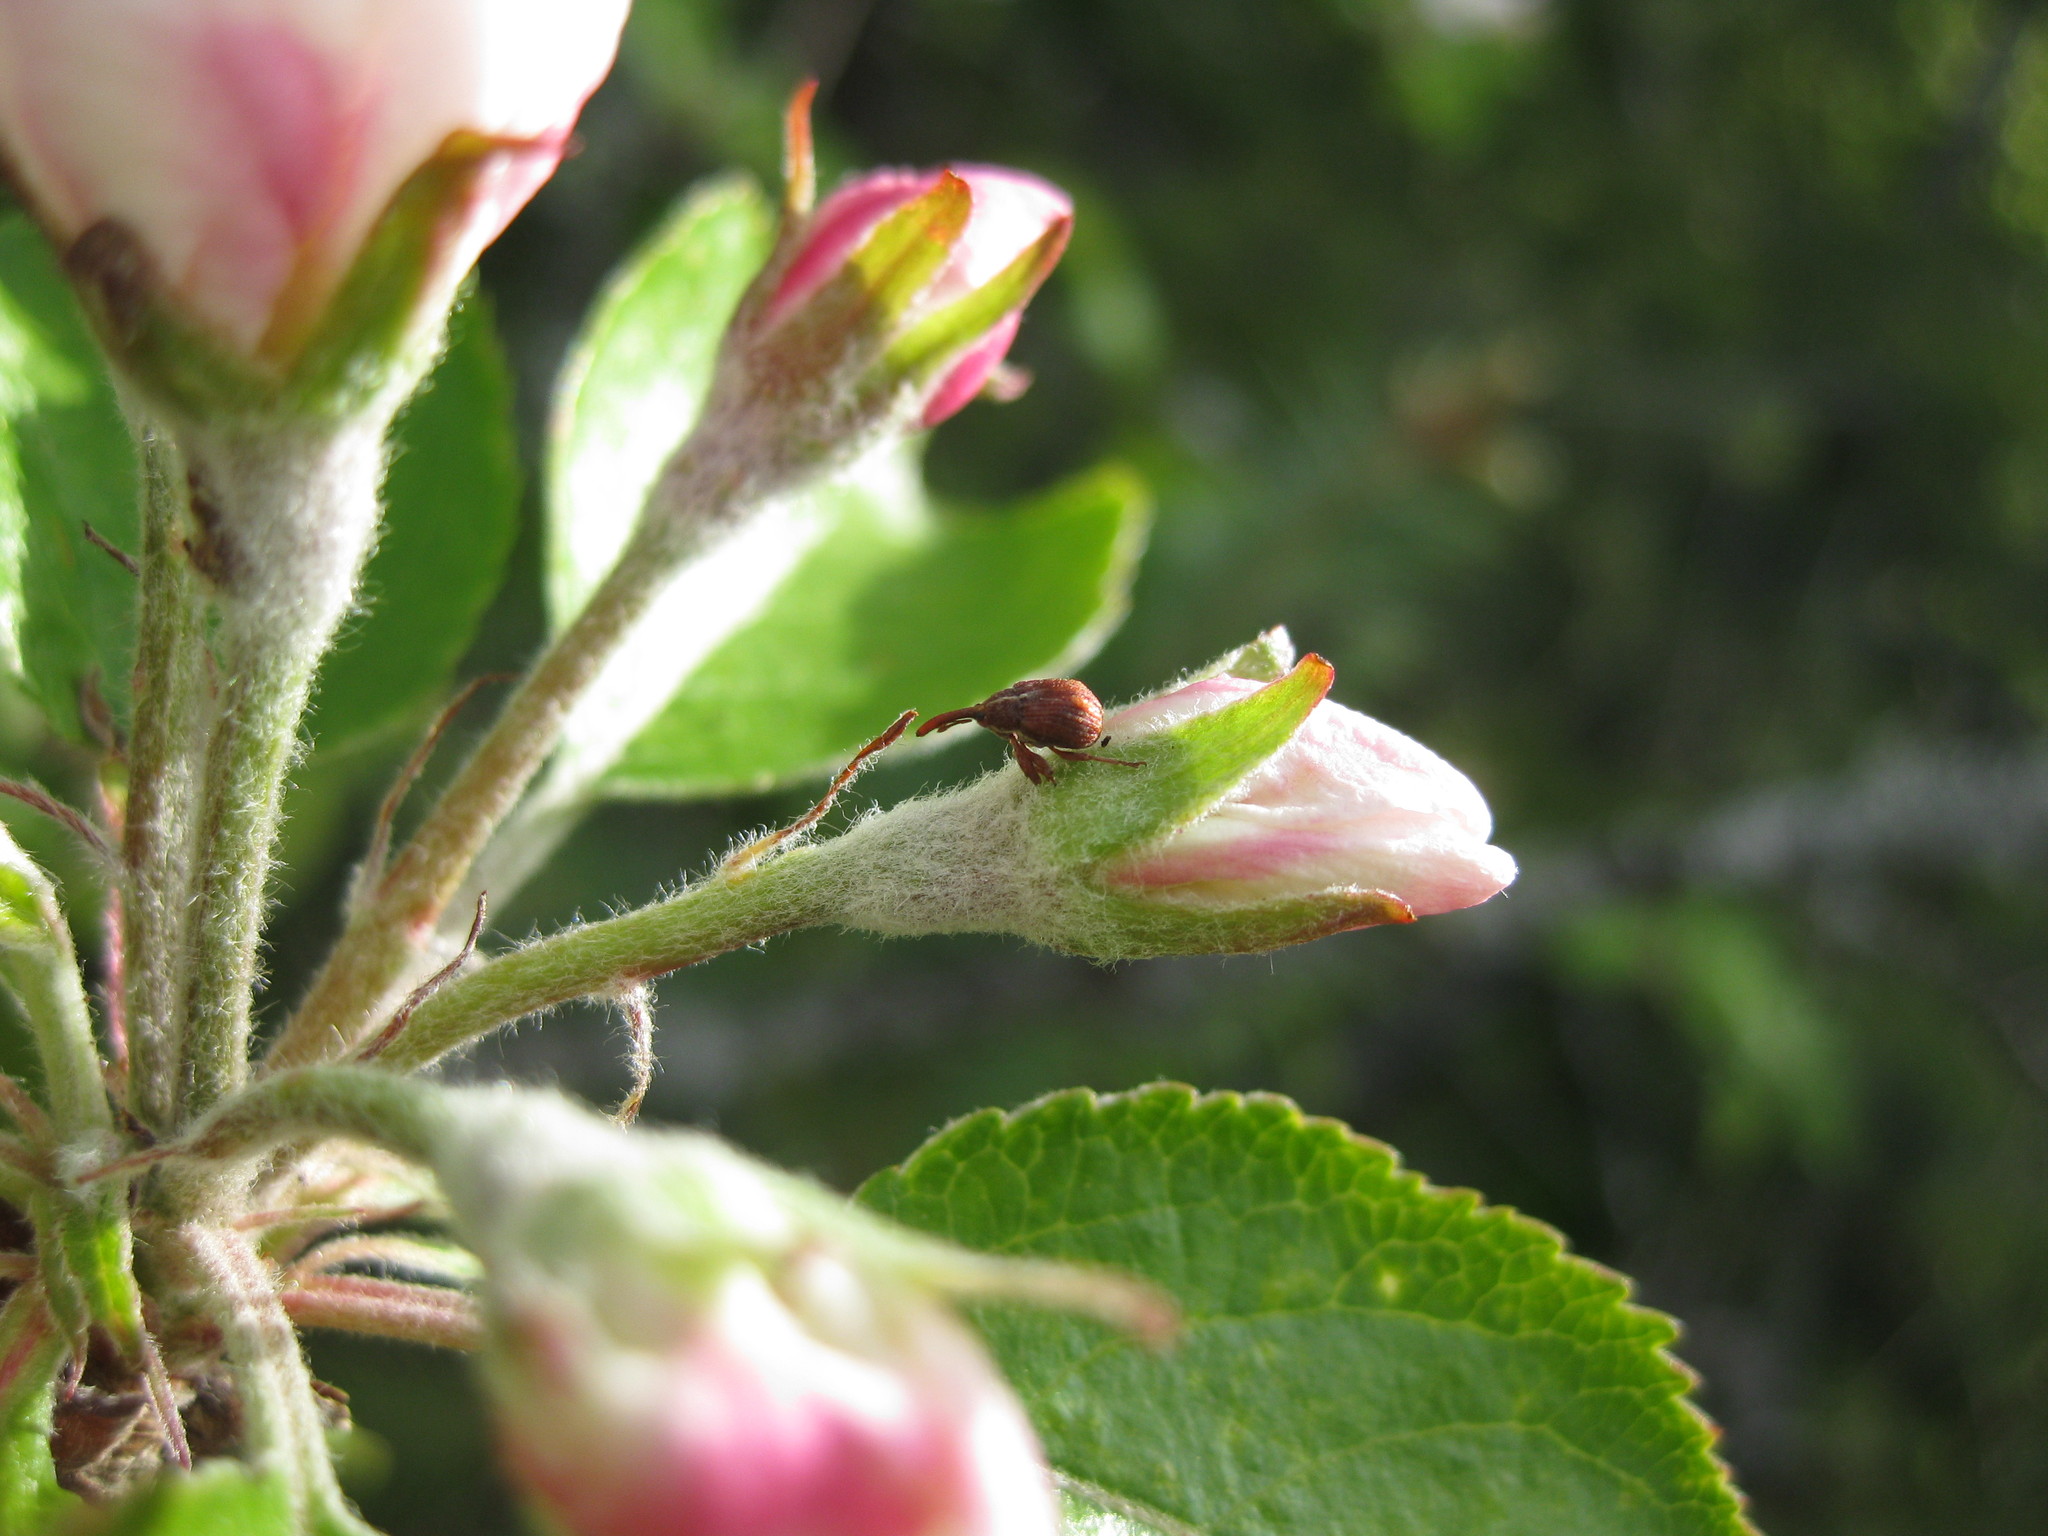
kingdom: Animalia
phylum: Arthropoda
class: Insecta
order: Coleoptera
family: Curculionidae
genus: Anthonomus
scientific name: Anthonomus quadrigibbus
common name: Apple curculio
